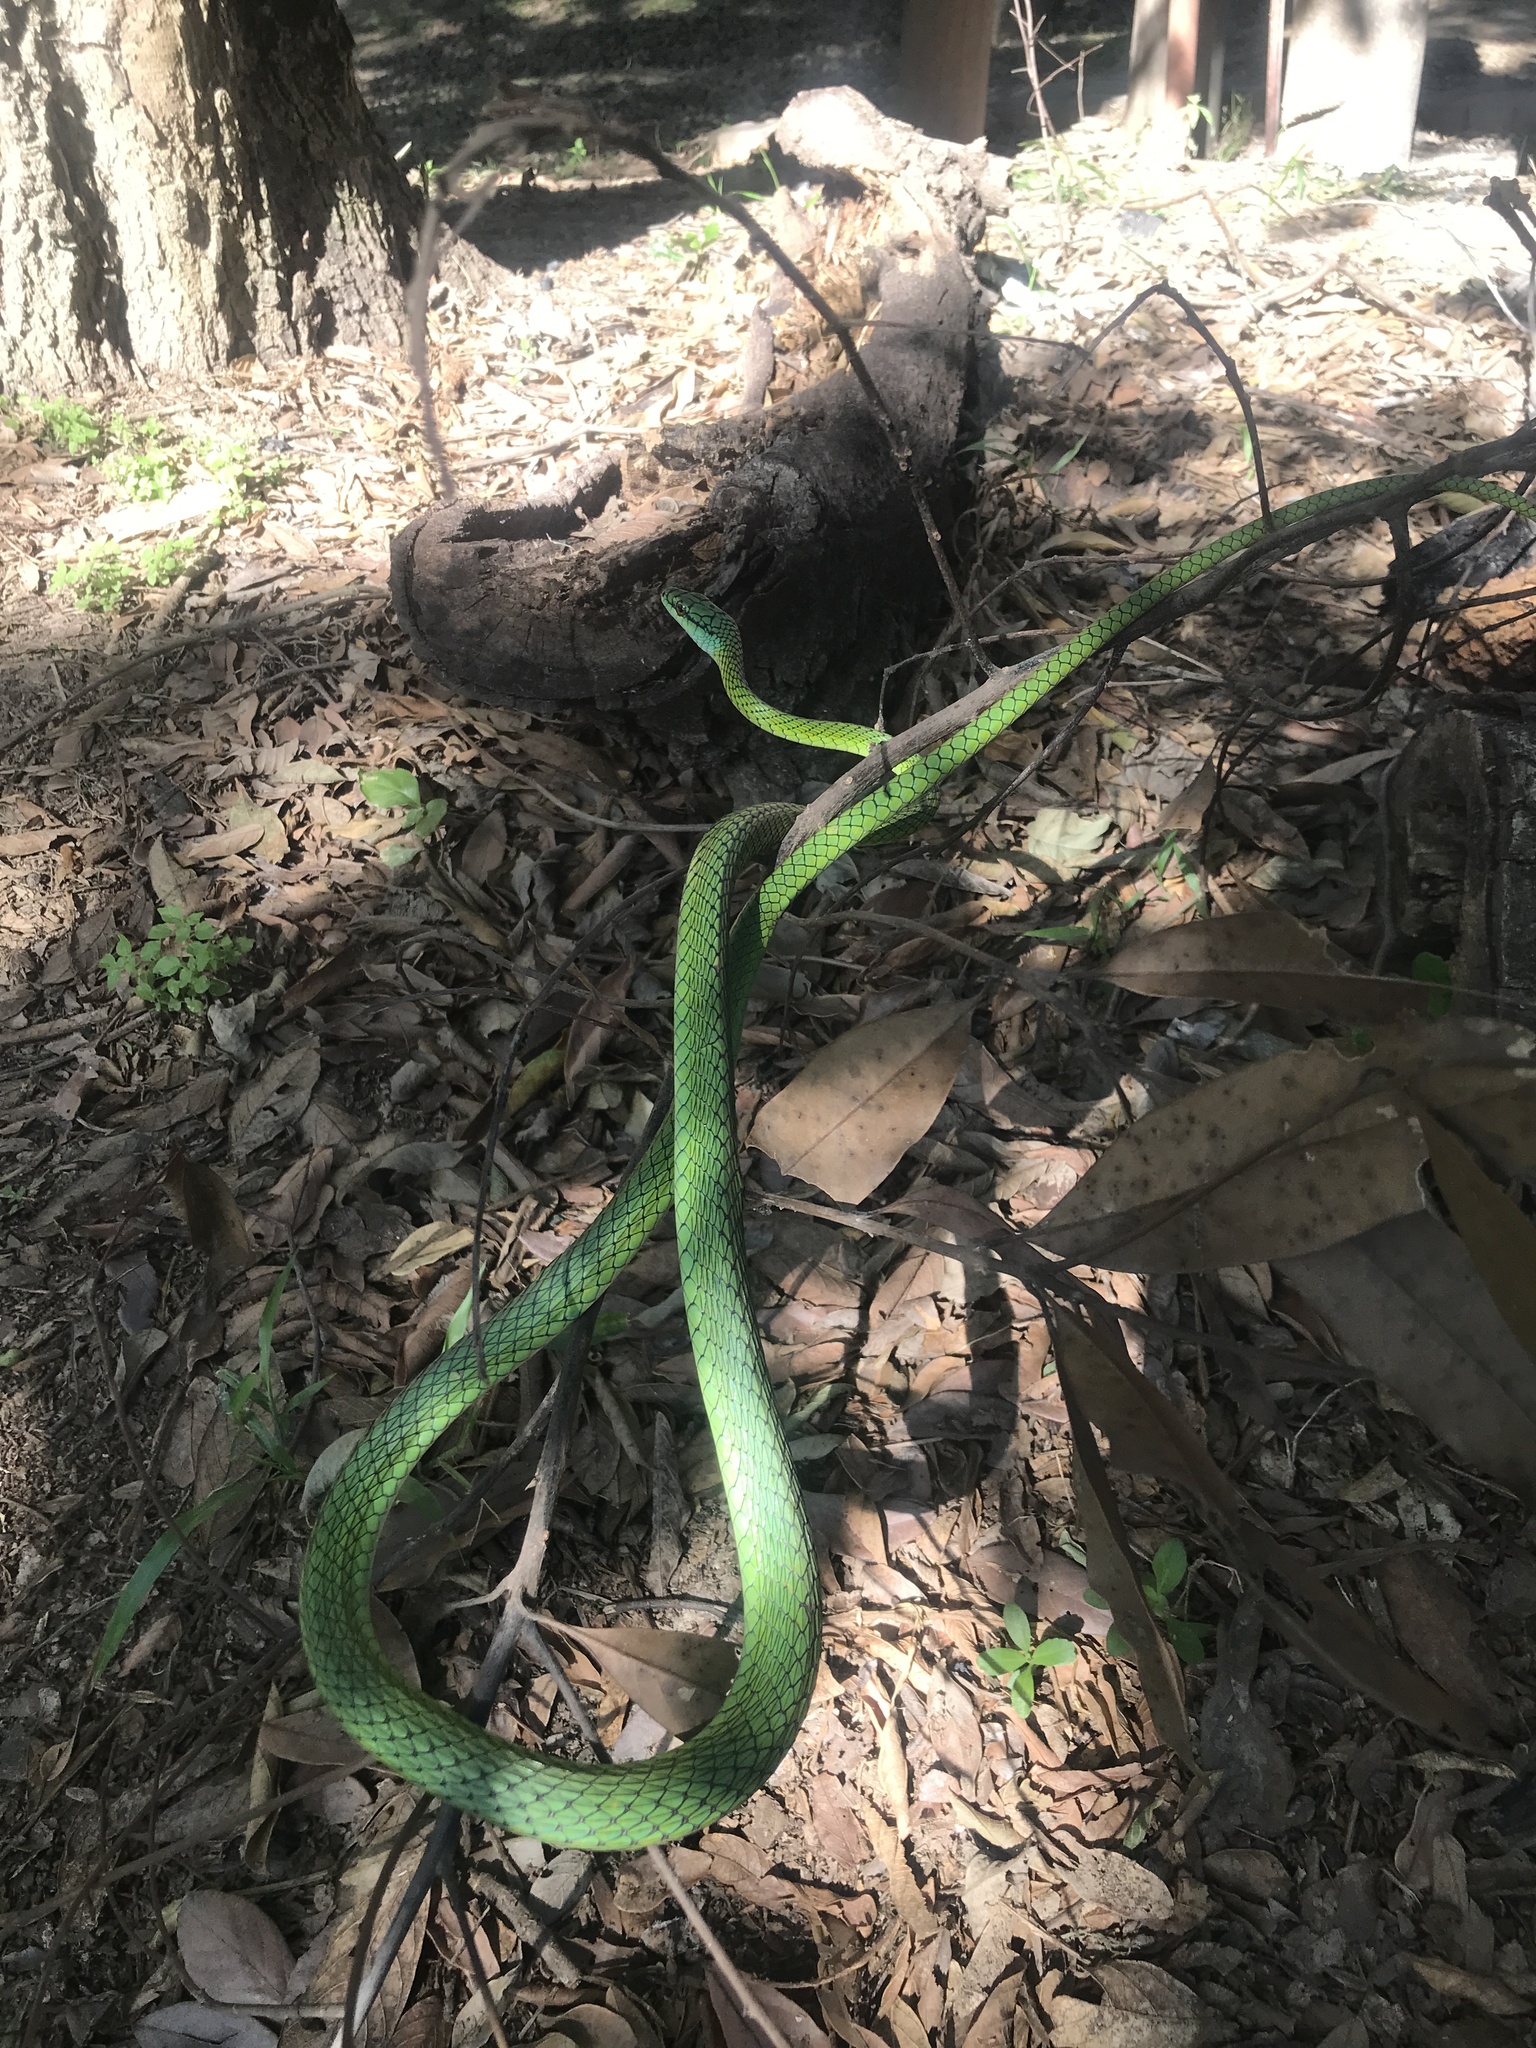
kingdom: Animalia
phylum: Chordata
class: Squamata
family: Colubridae
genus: Leptophis
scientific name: Leptophis ahaetulla
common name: Parrot snake
